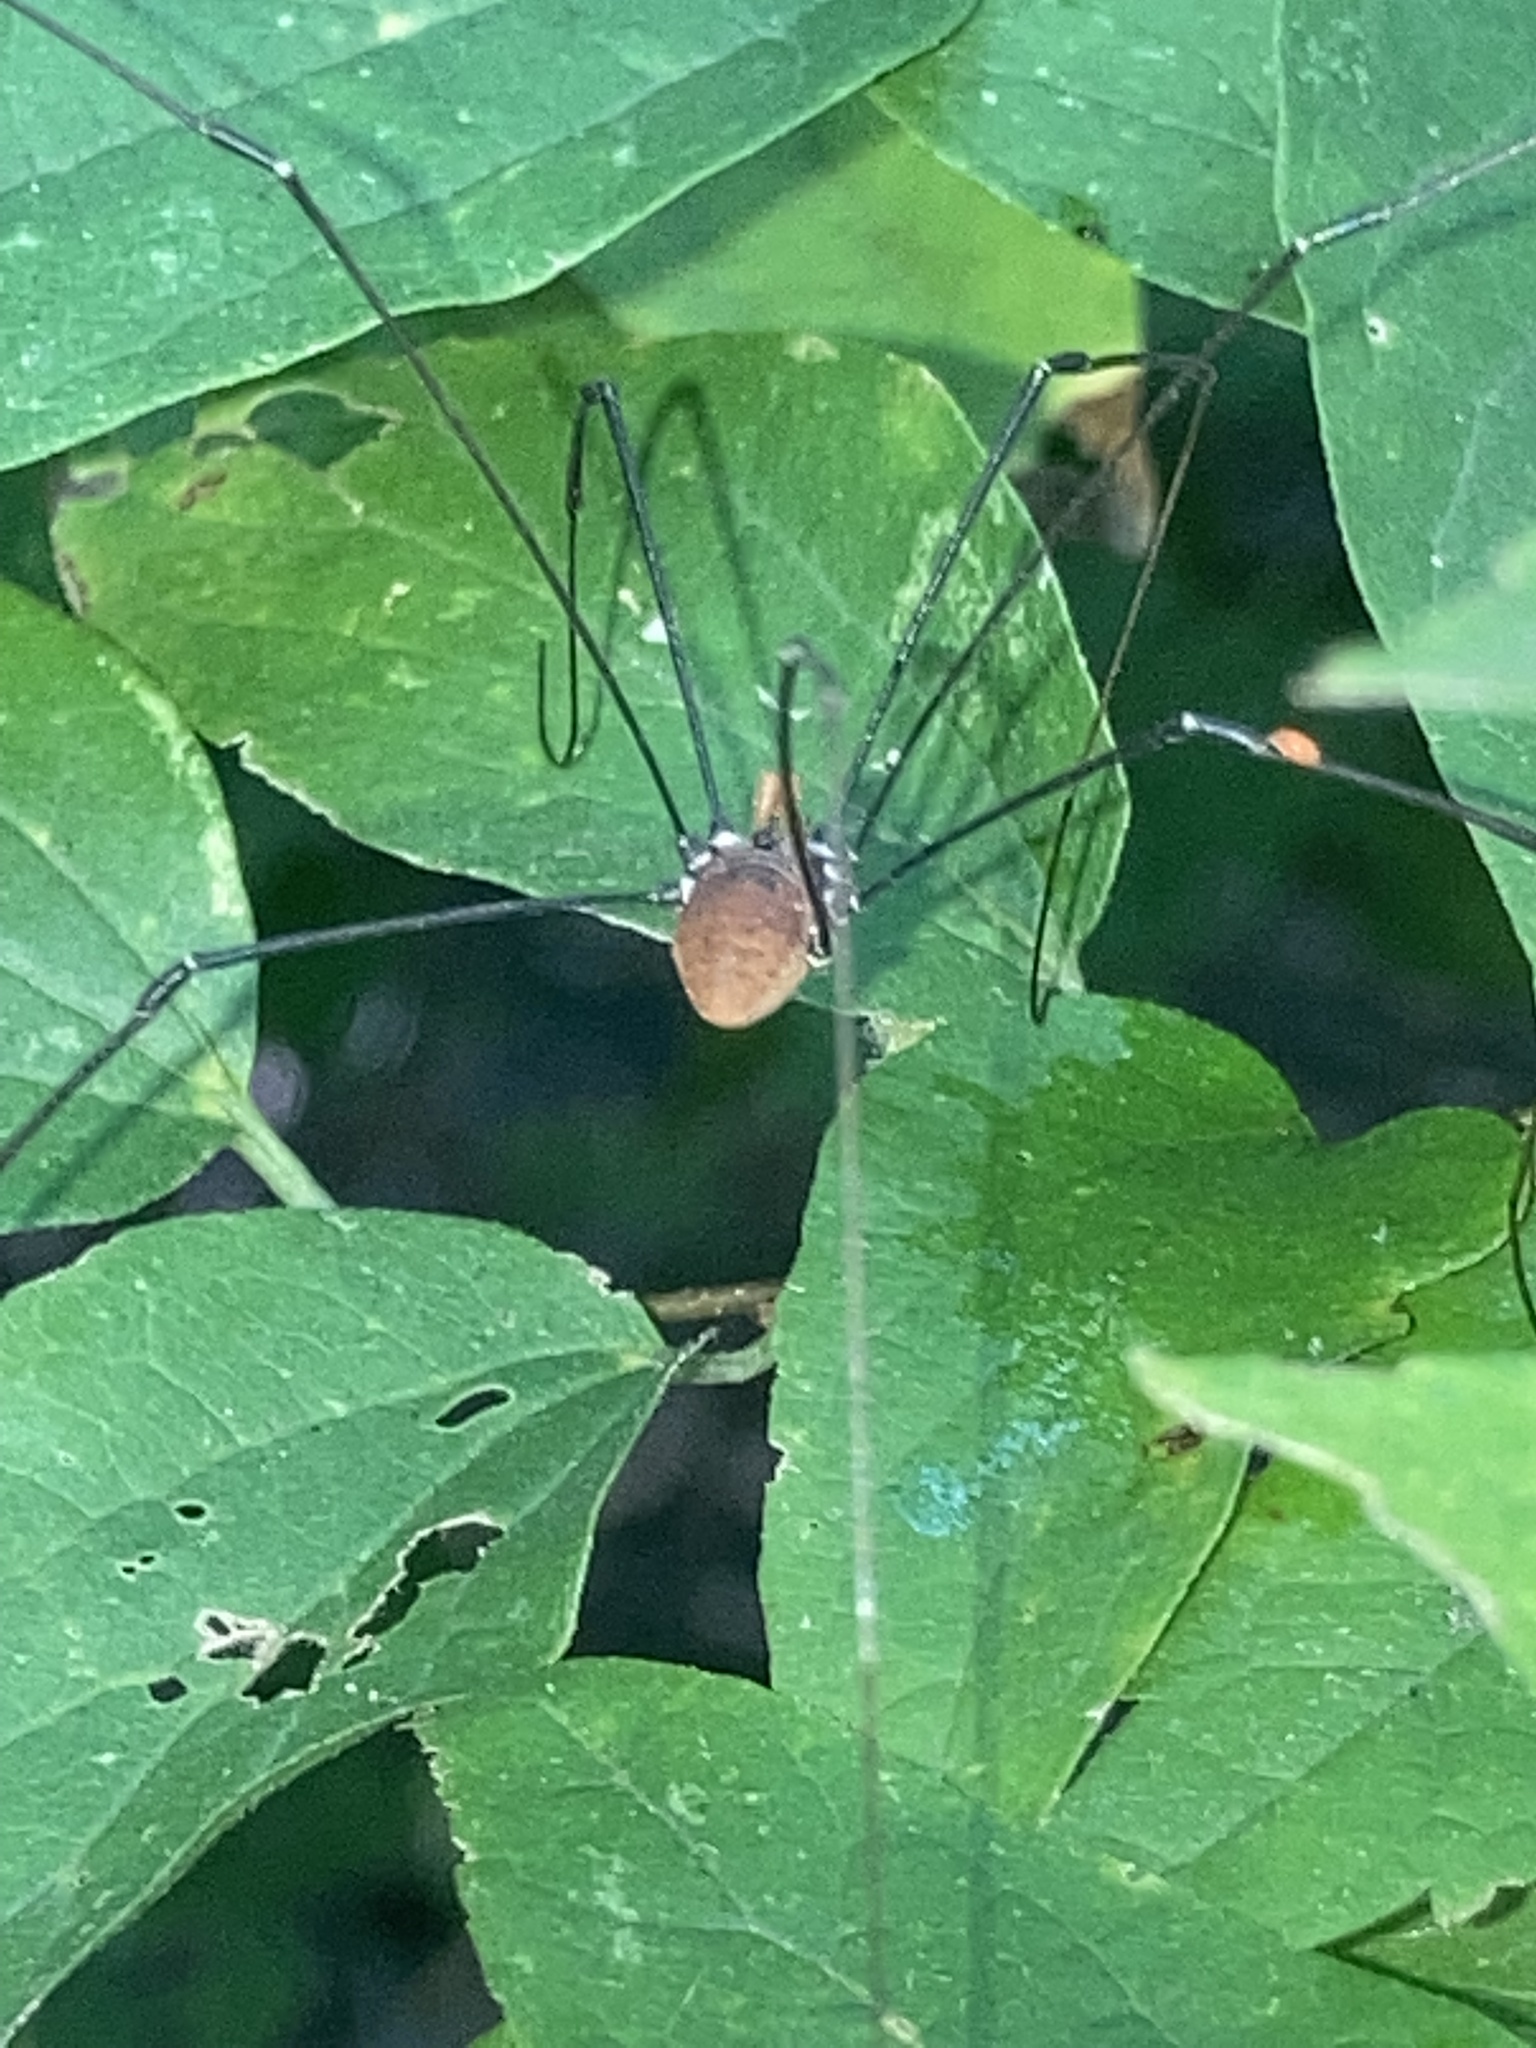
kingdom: Animalia
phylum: Arthropoda
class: Arachnida
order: Opiliones
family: Sclerosomatidae
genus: Leiobunum
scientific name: Leiobunum vittatum
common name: Eastern harvestman
